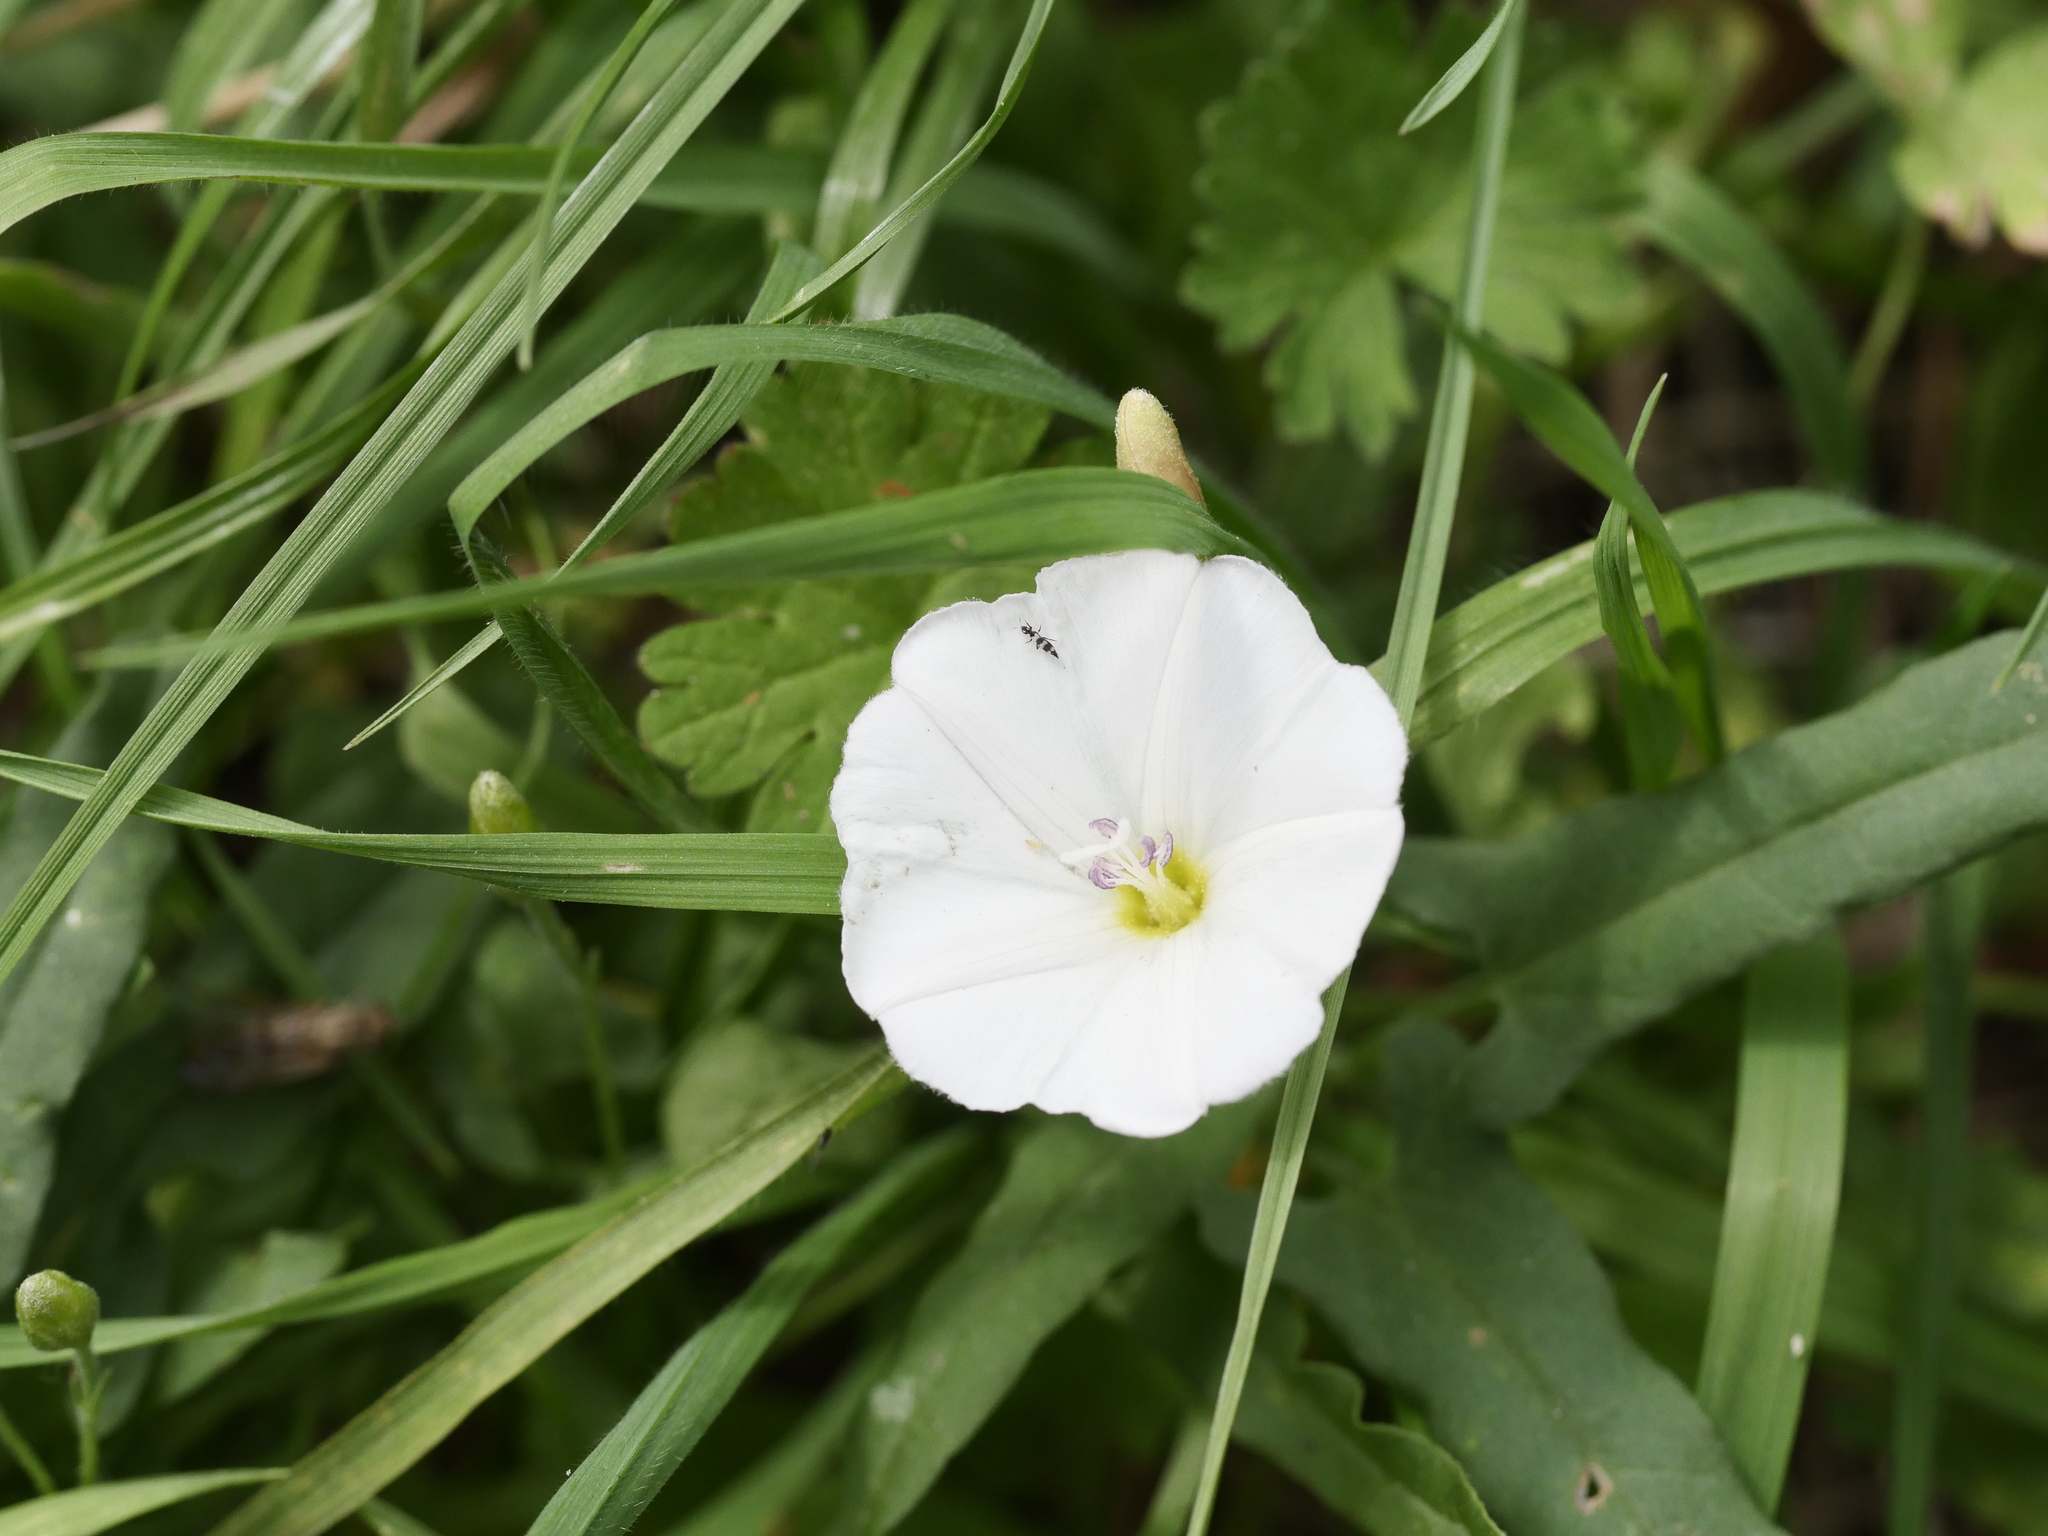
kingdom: Plantae
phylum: Tracheophyta
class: Magnoliopsida
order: Solanales
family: Convolvulaceae
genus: Convolvulus
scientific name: Convolvulus arvensis
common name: Field bindweed
